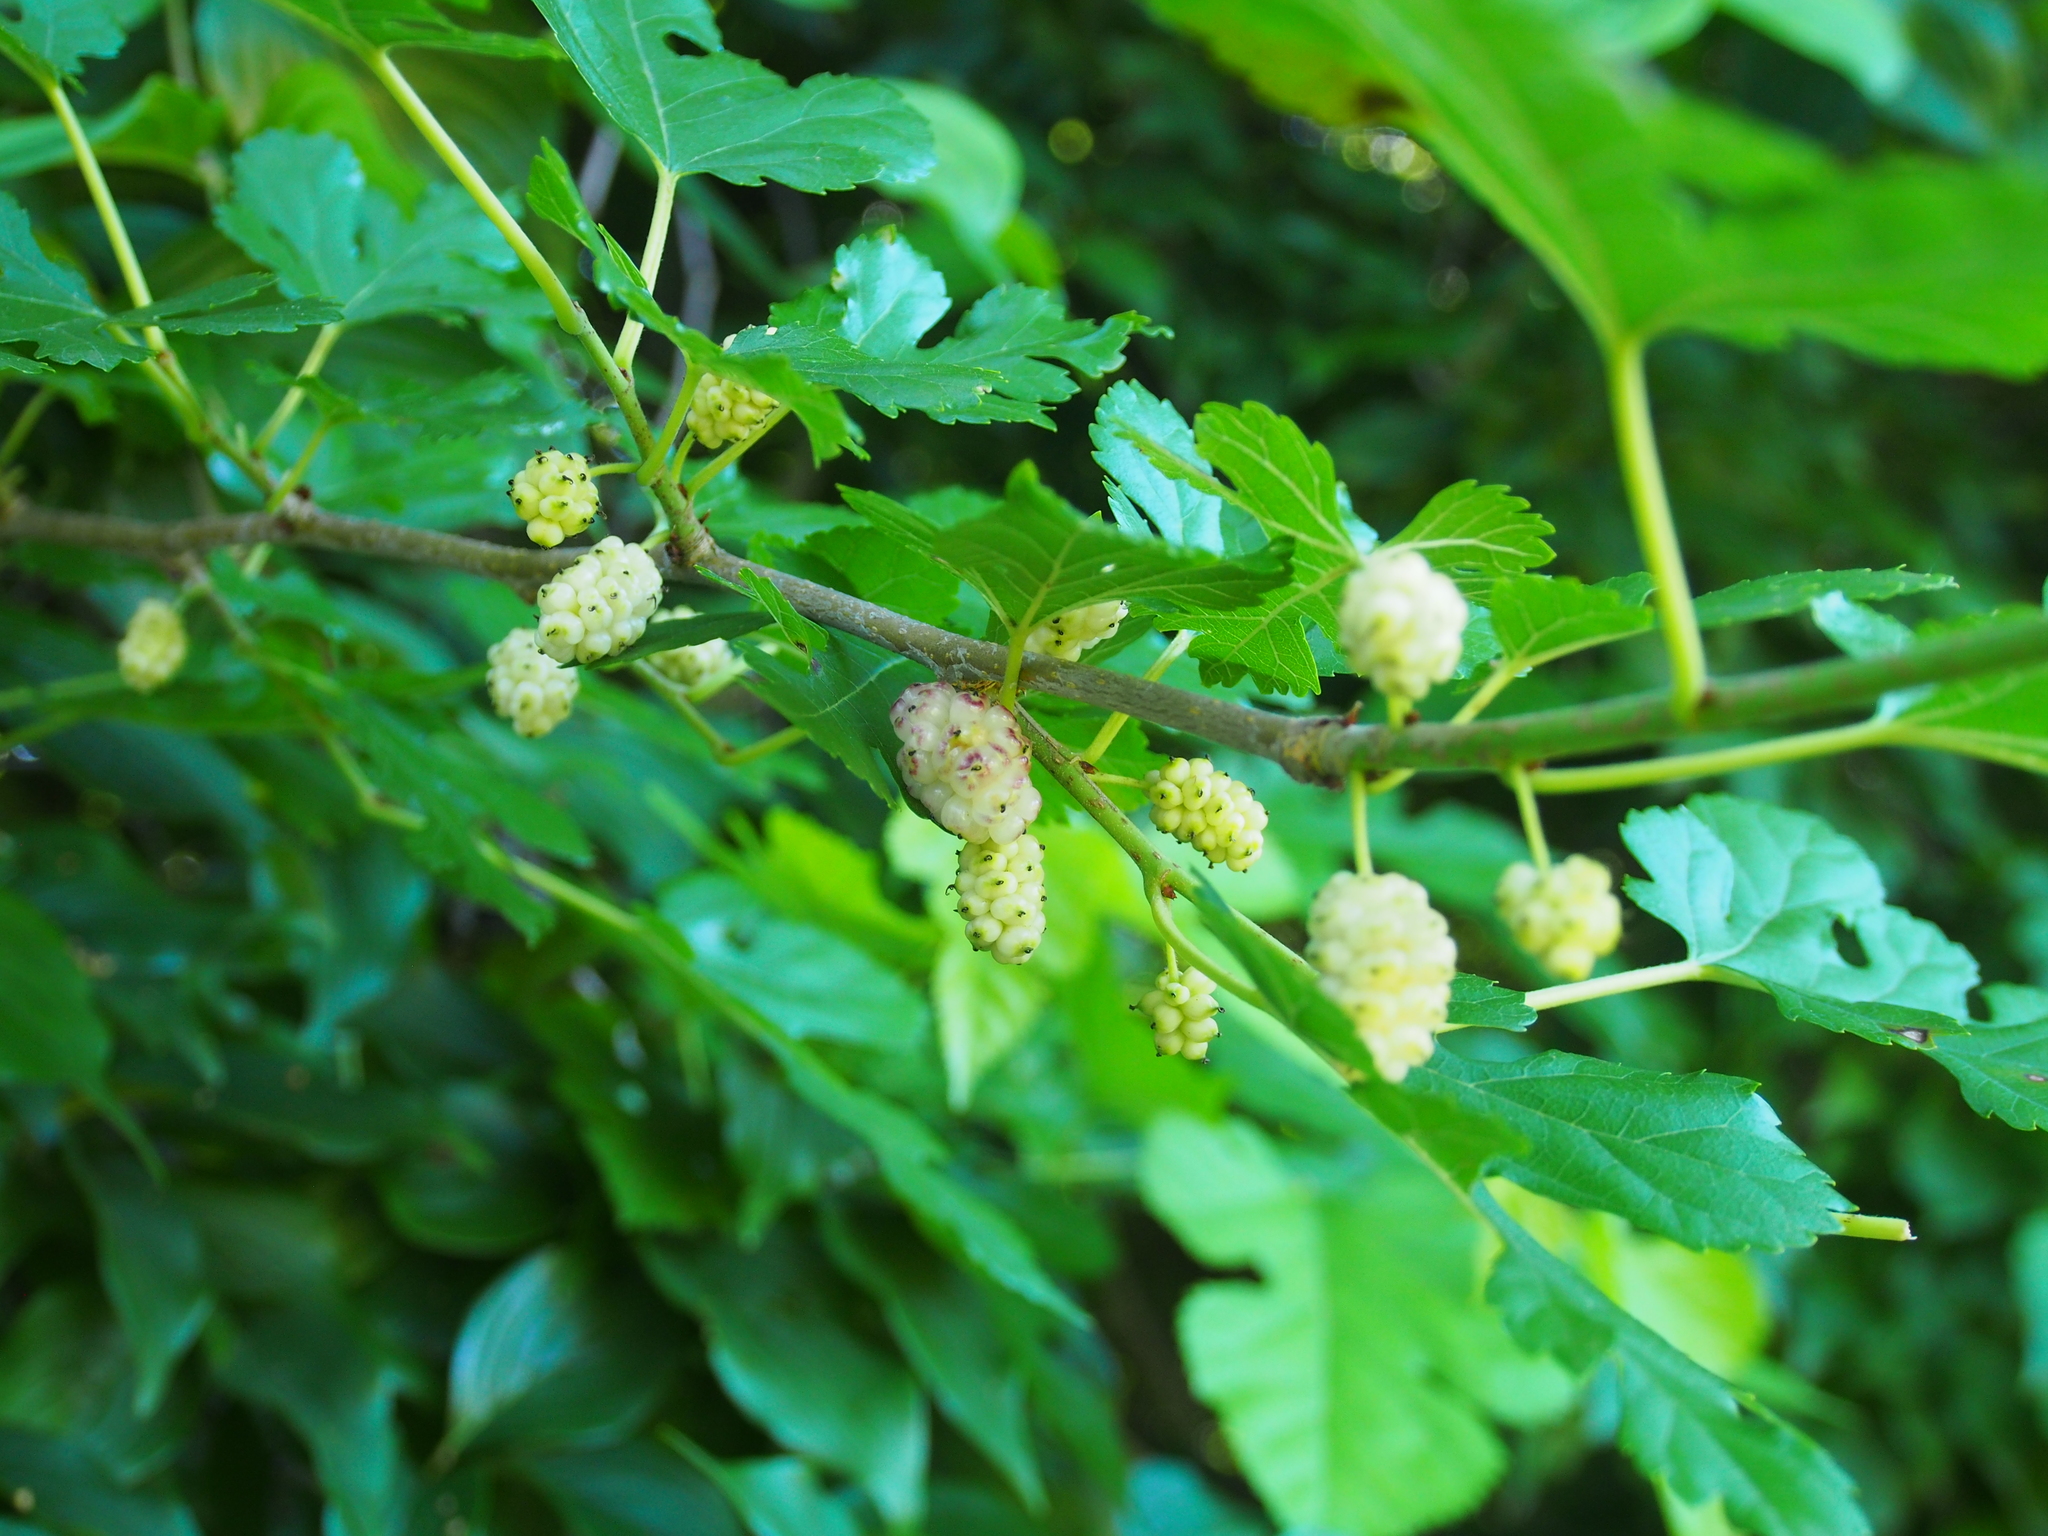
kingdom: Plantae
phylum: Tracheophyta
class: Magnoliopsida
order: Rosales
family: Moraceae
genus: Morus
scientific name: Morus alba
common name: White mulberry
